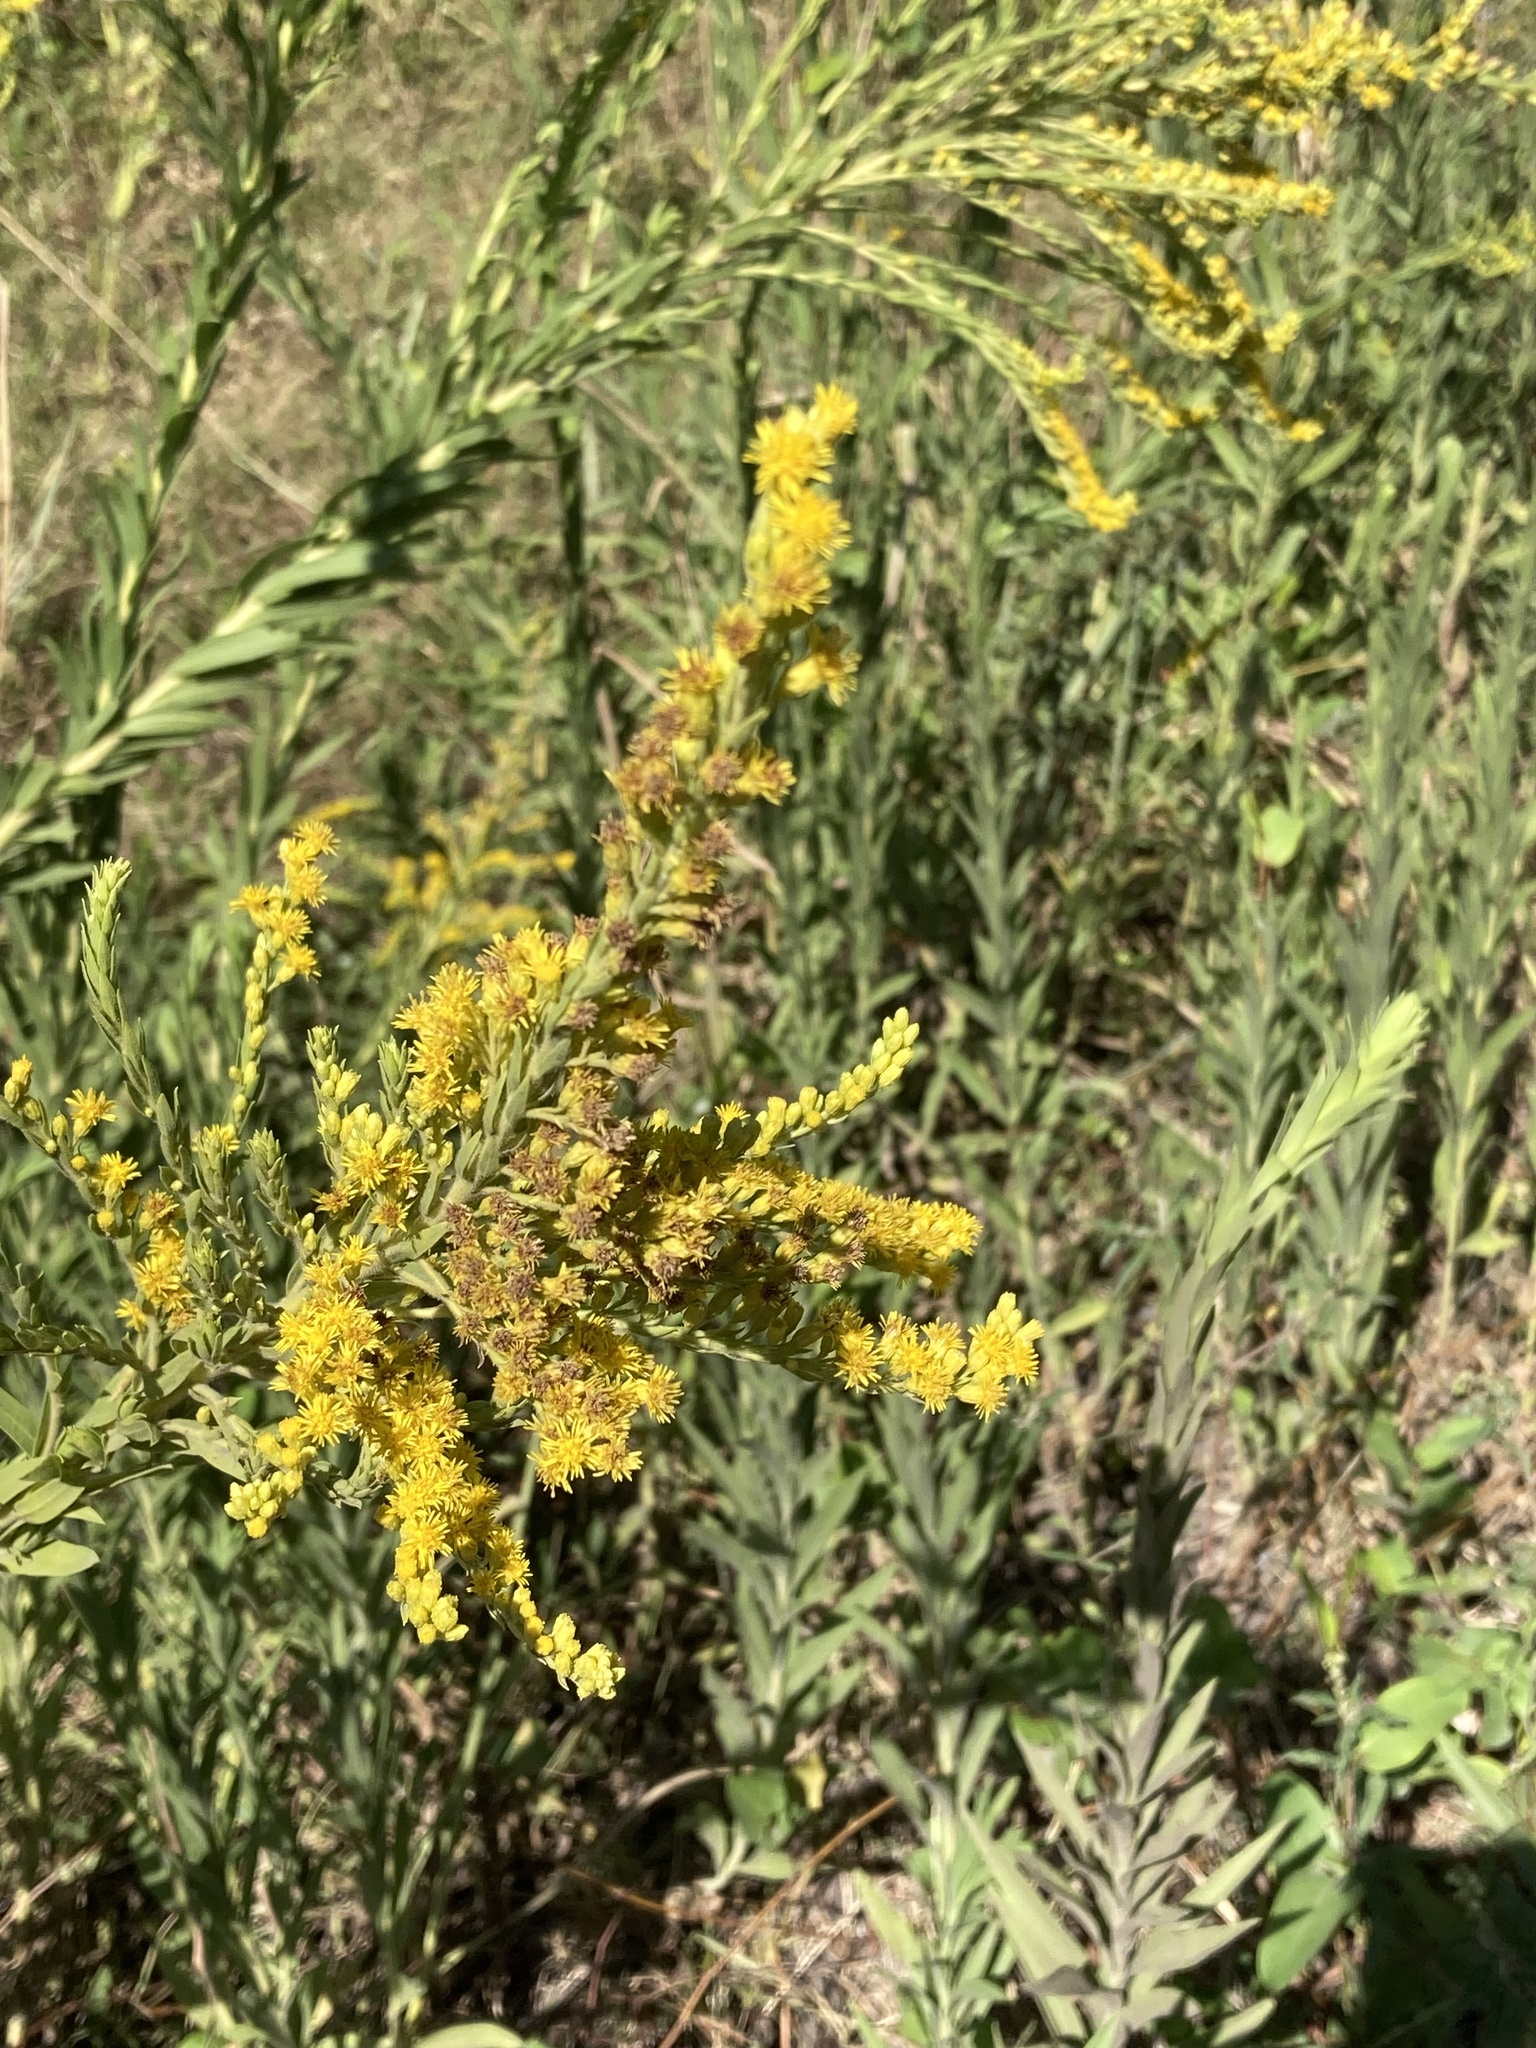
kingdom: Plantae
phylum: Tracheophyta
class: Magnoliopsida
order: Asterales
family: Asteraceae
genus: Solidago
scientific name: Solidago chilensis
